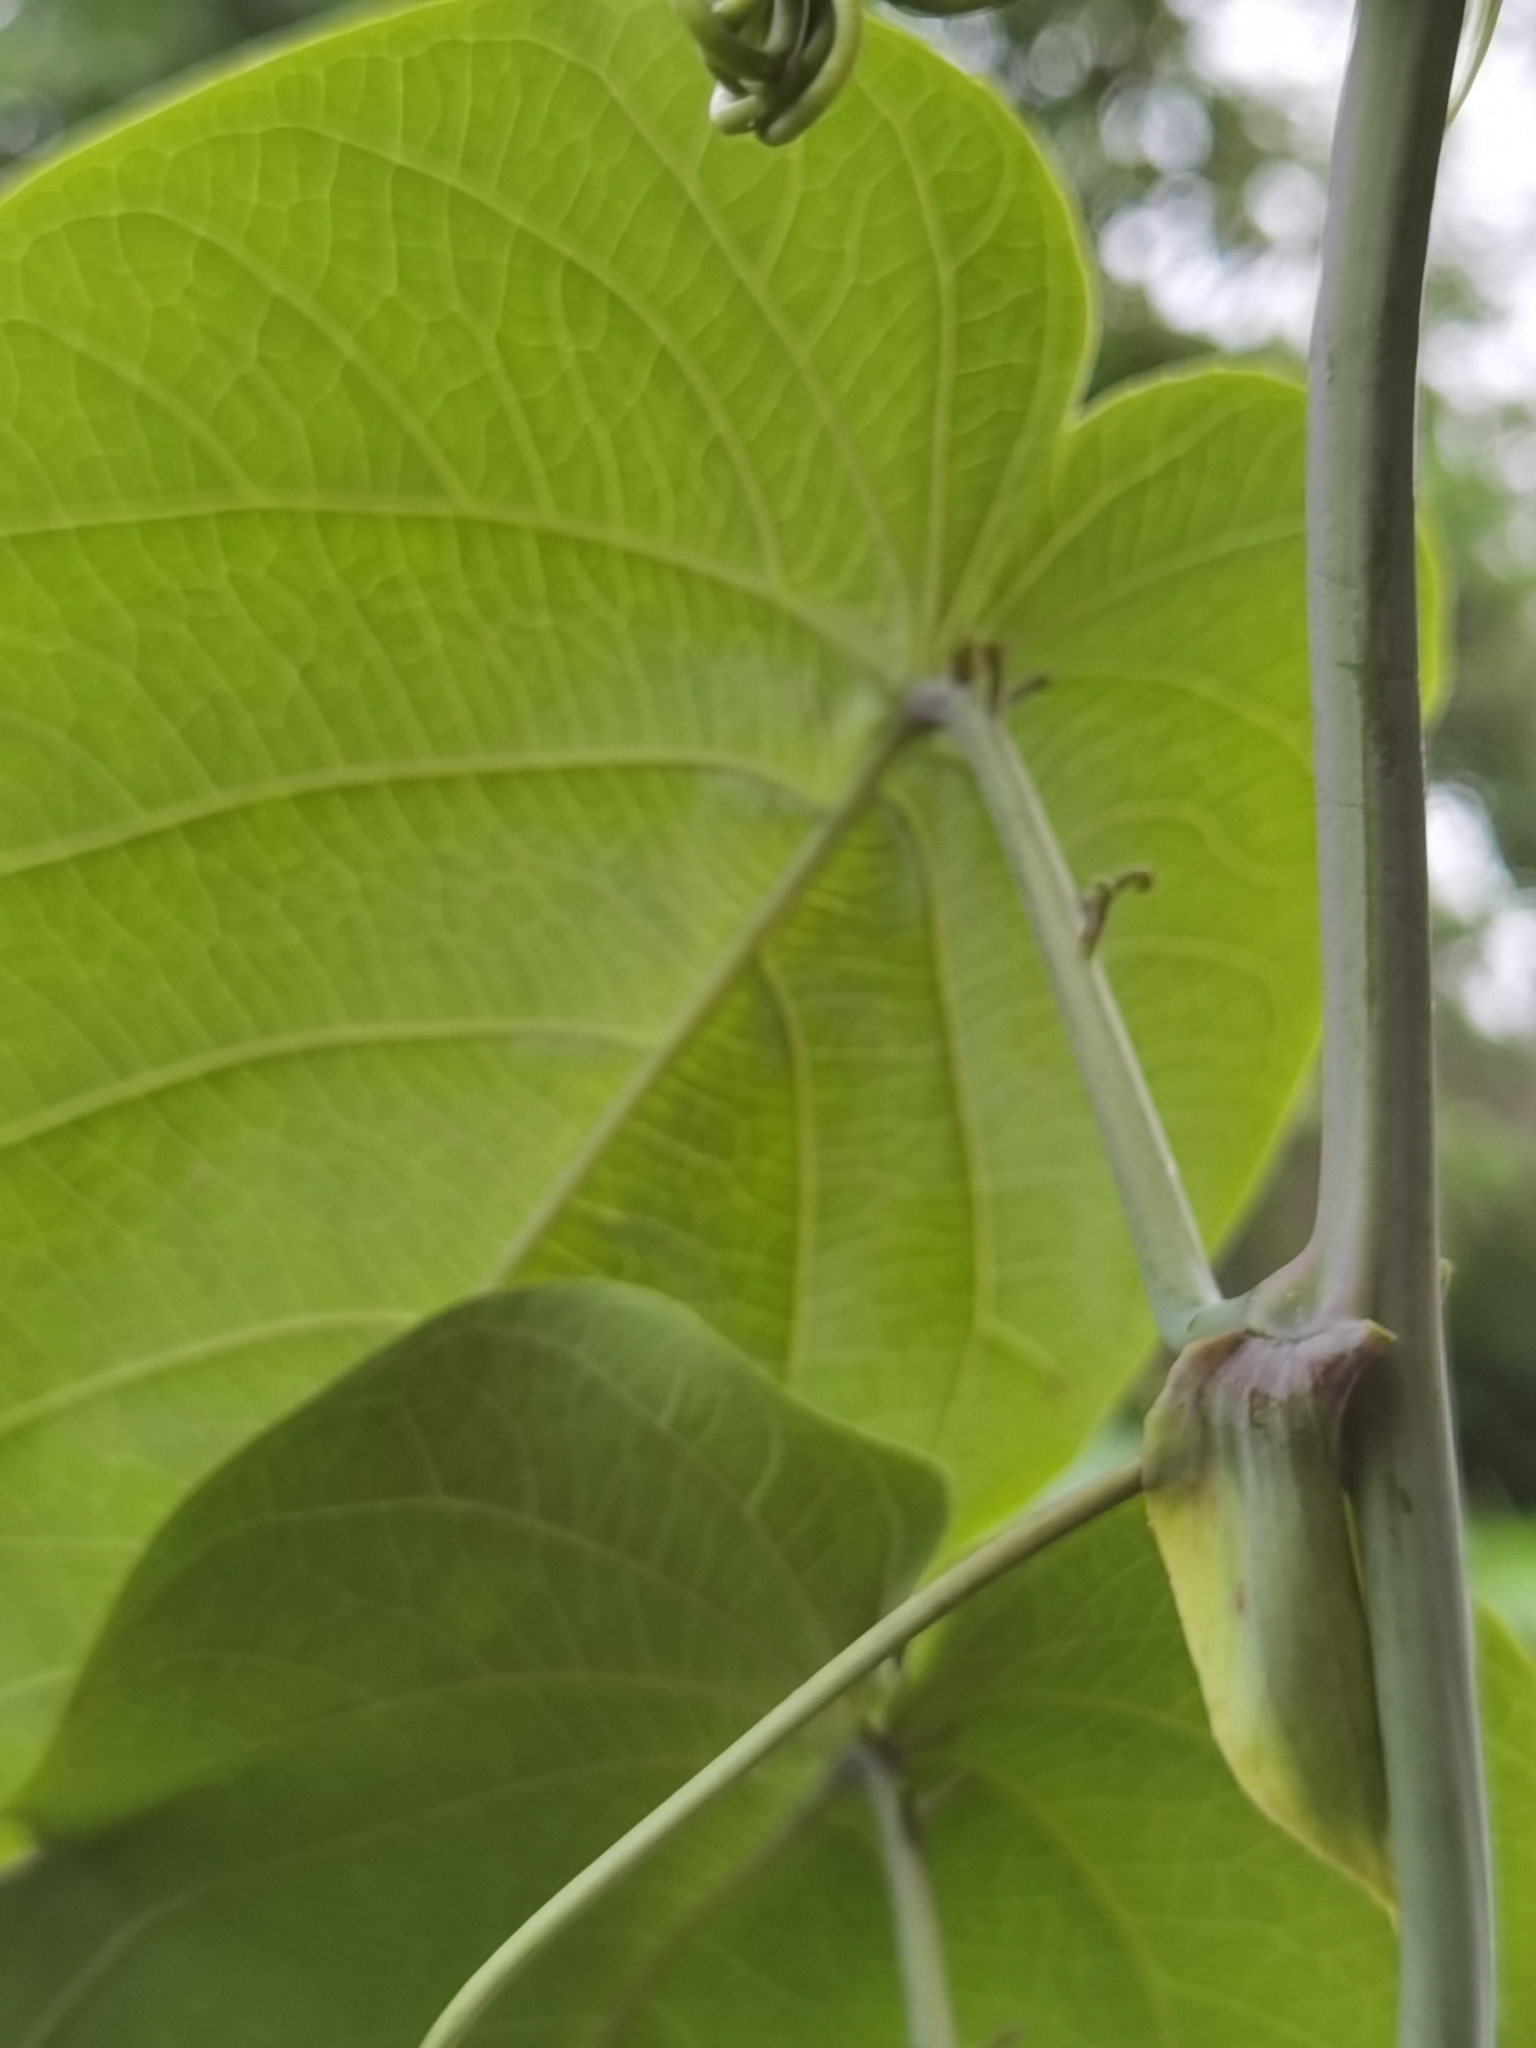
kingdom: Plantae
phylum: Tracheophyta
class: Magnoliopsida
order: Malpighiales
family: Passifloraceae
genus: Passiflora
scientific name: Passiflora ligularis
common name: Sweet granadilla
